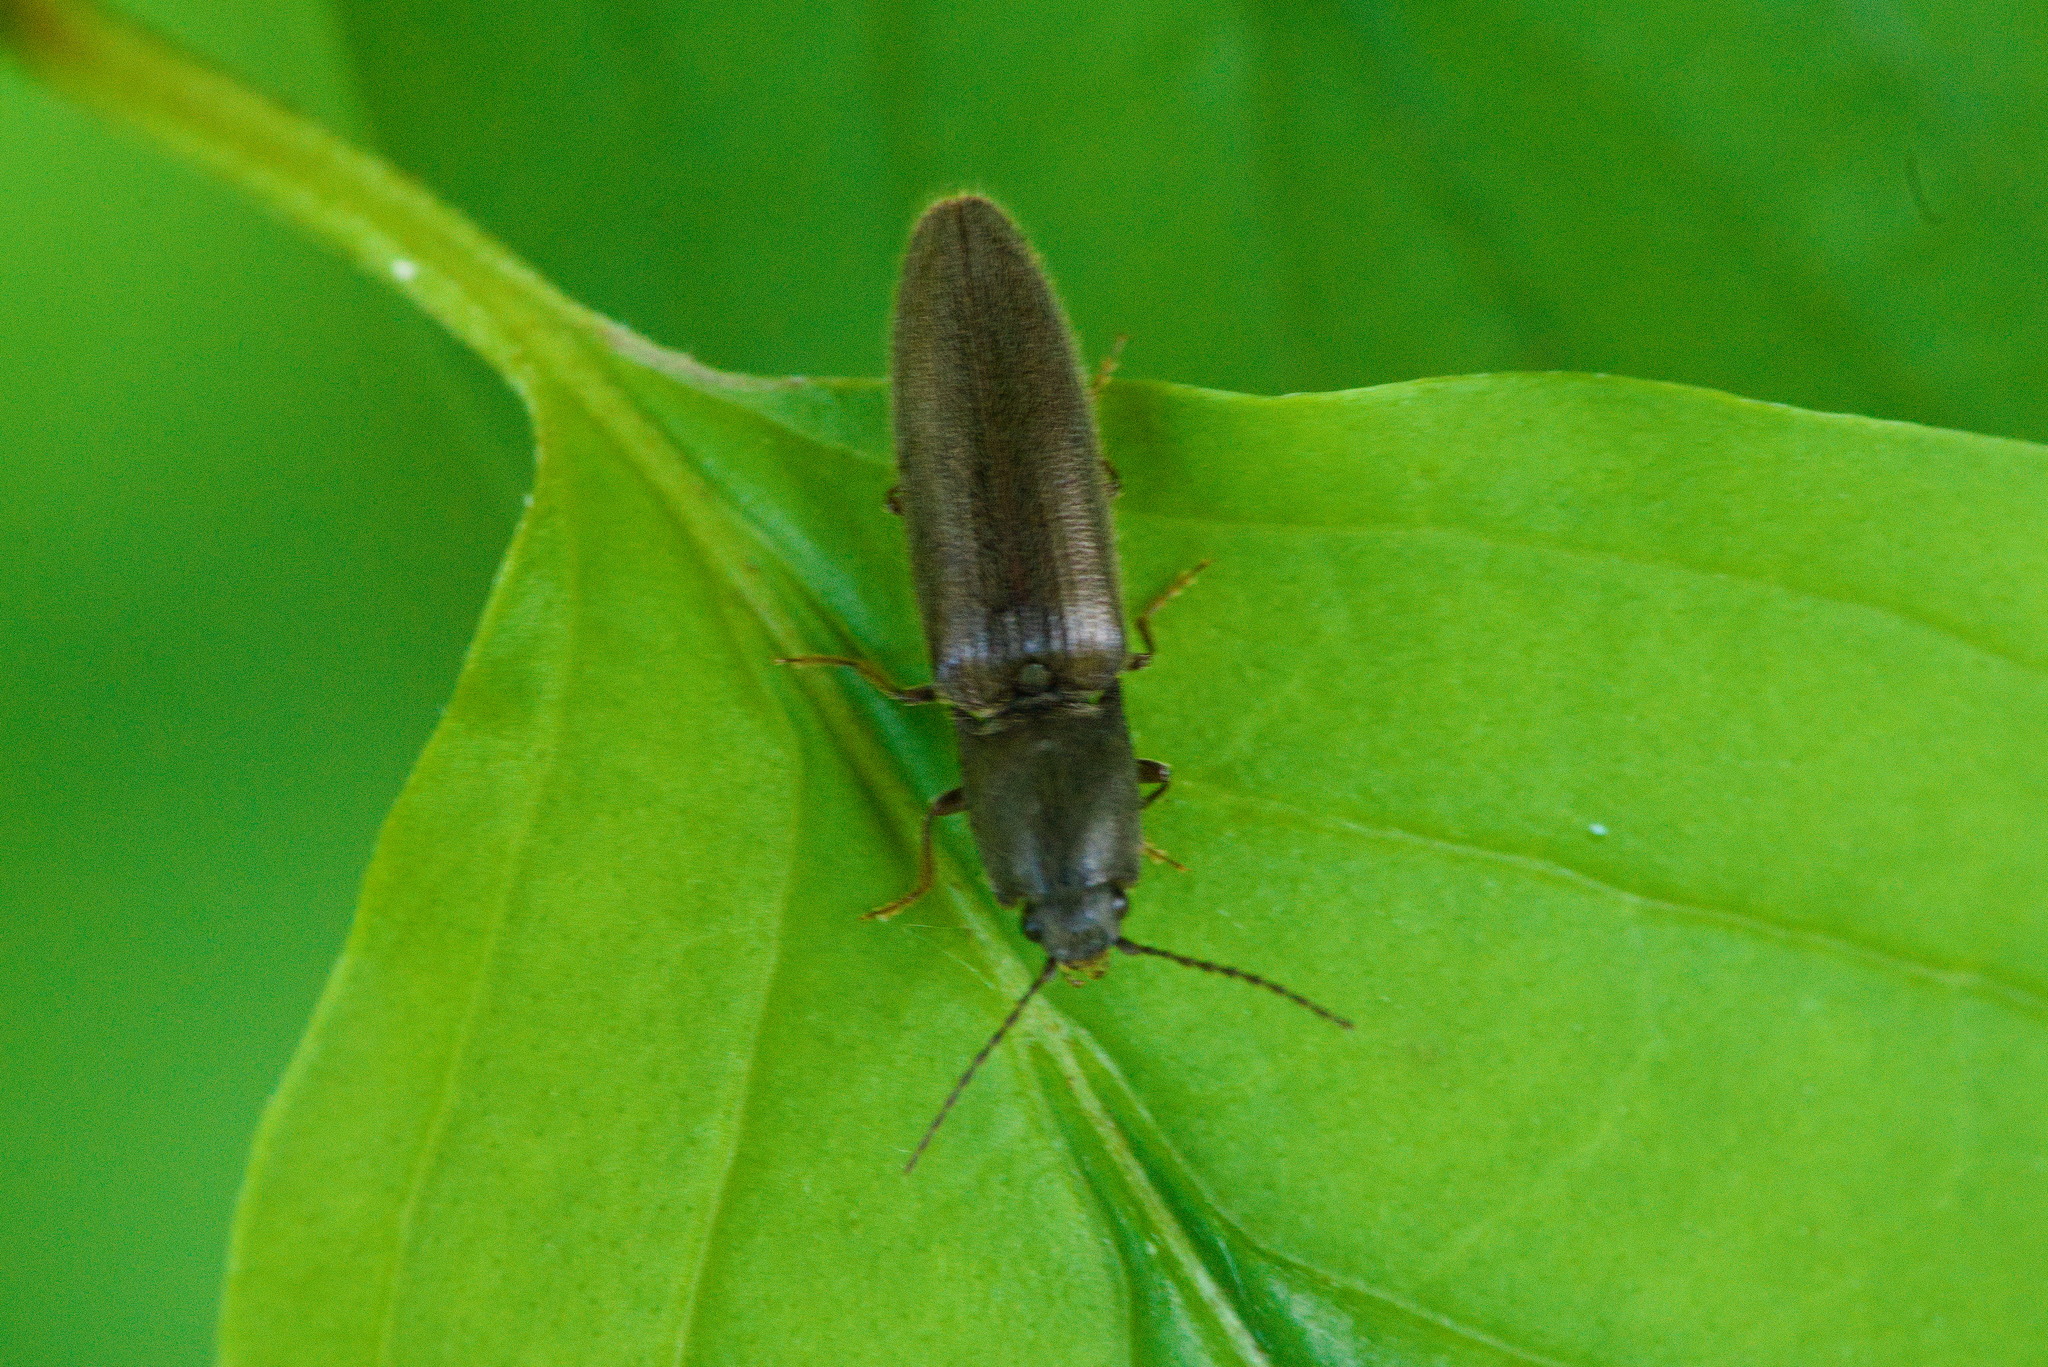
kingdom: Animalia
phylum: Arthropoda
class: Insecta
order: Coleoptera
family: Elateridae
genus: Athous
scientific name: Athous haemorrhoidalis
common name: Red-brown click beetle
